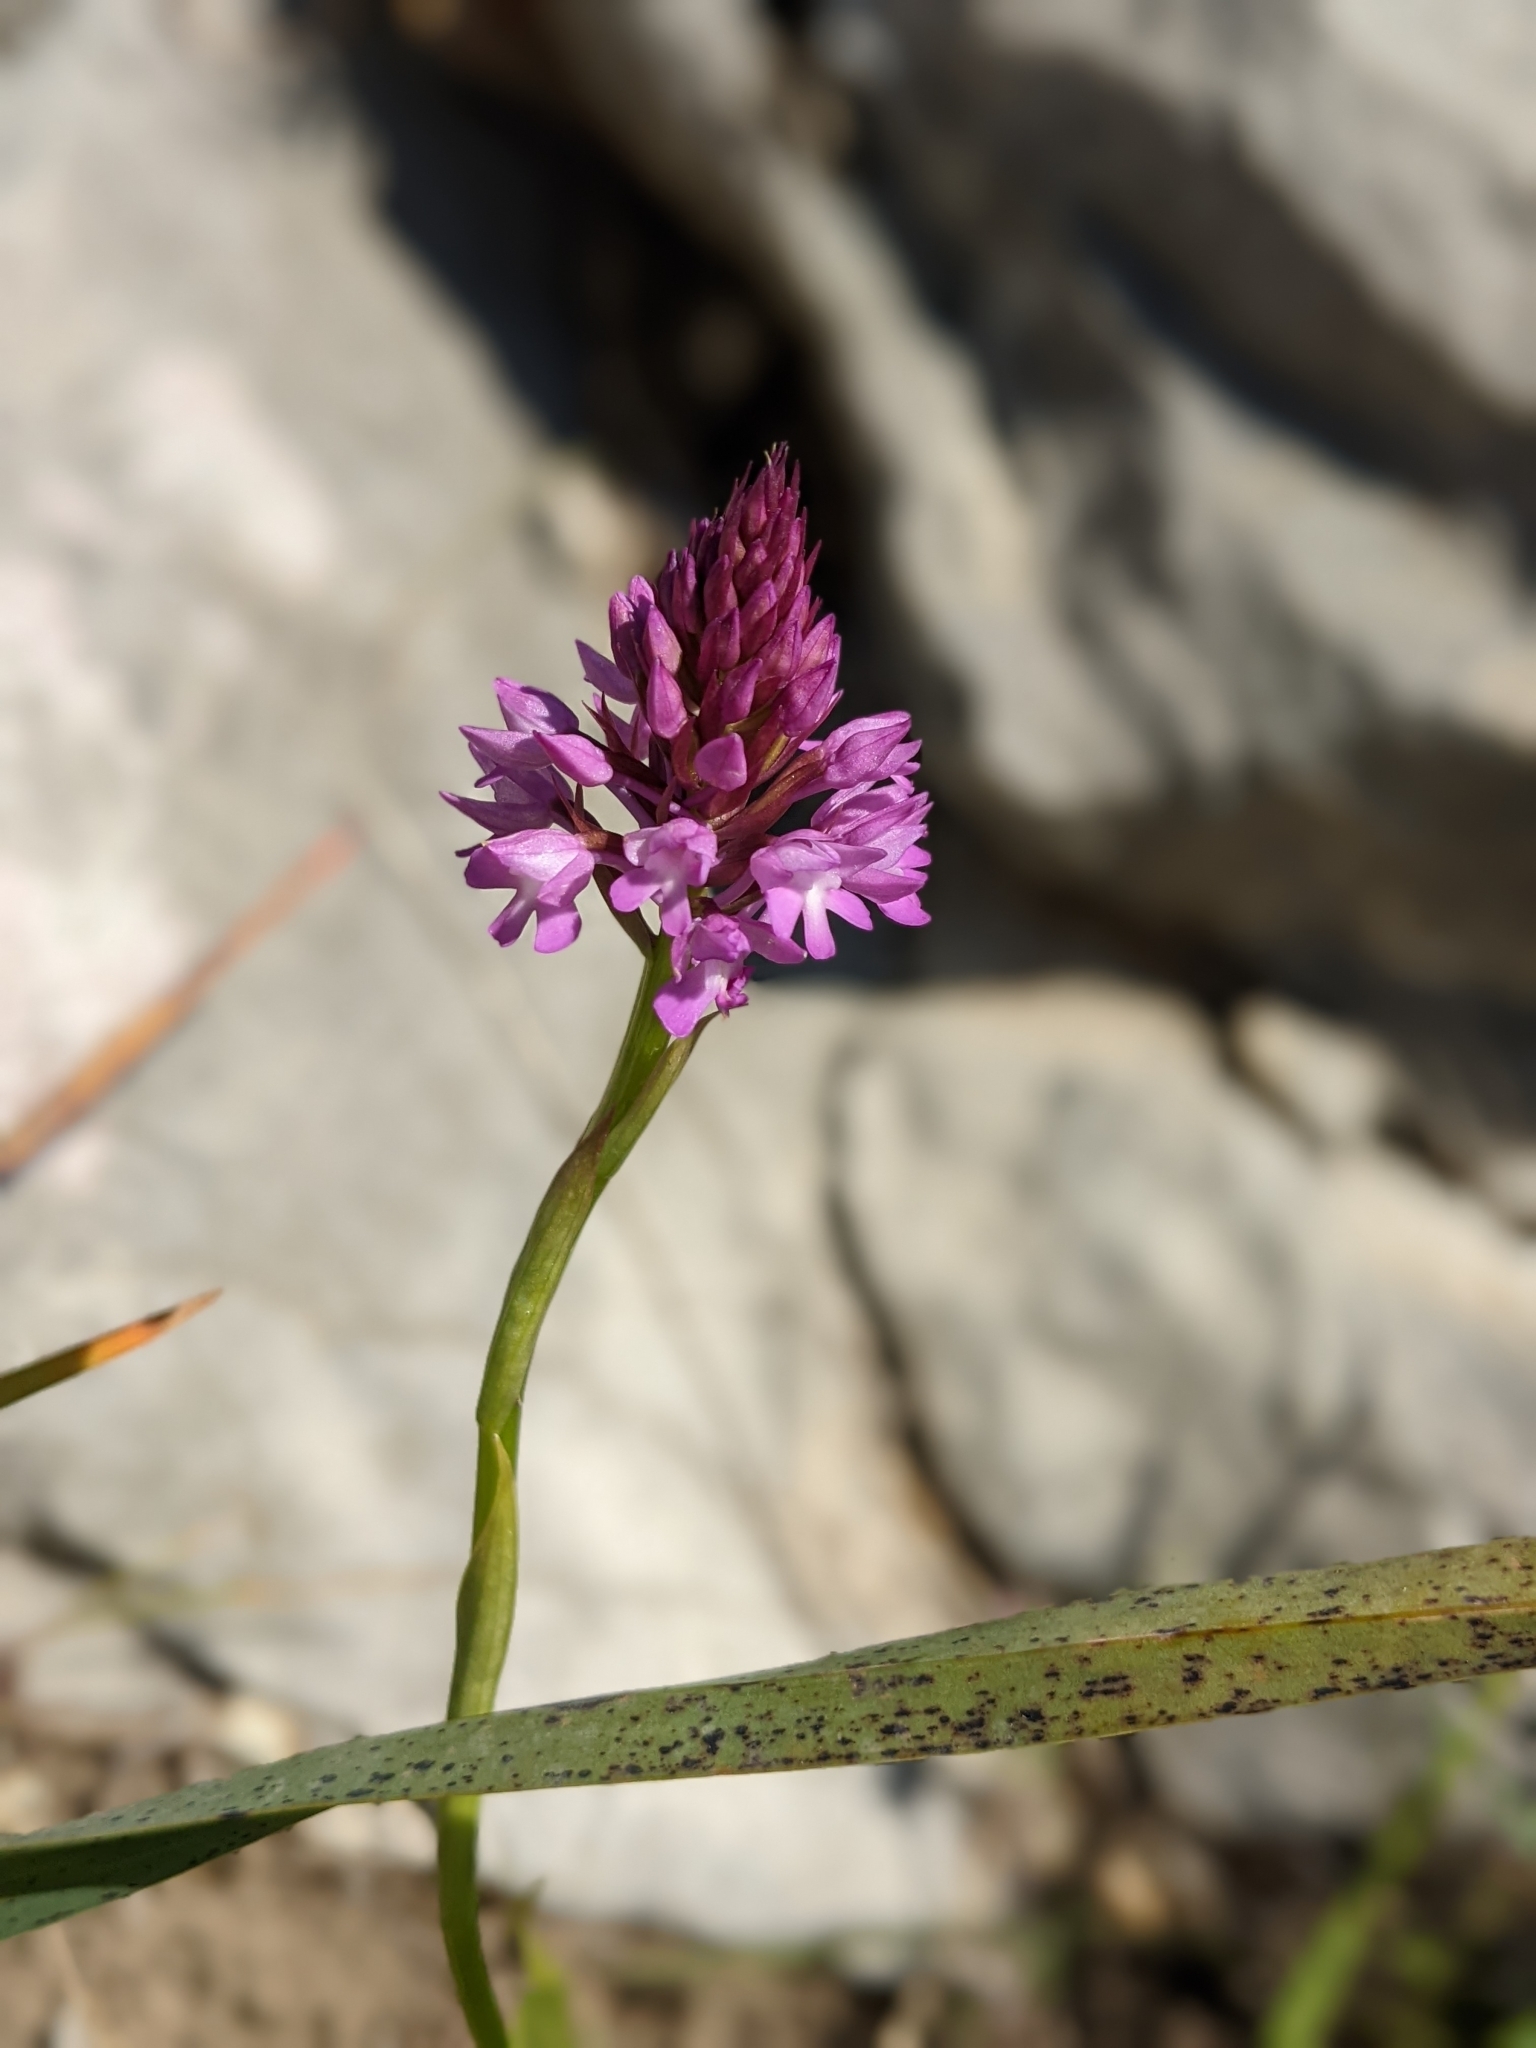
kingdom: Plantae
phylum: Tracheophyta
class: Liliopsida
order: Asparagales
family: Orchidaceae
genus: Anacamptis
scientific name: Anacamptis pyramidalis
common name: Pyramidal orchid
